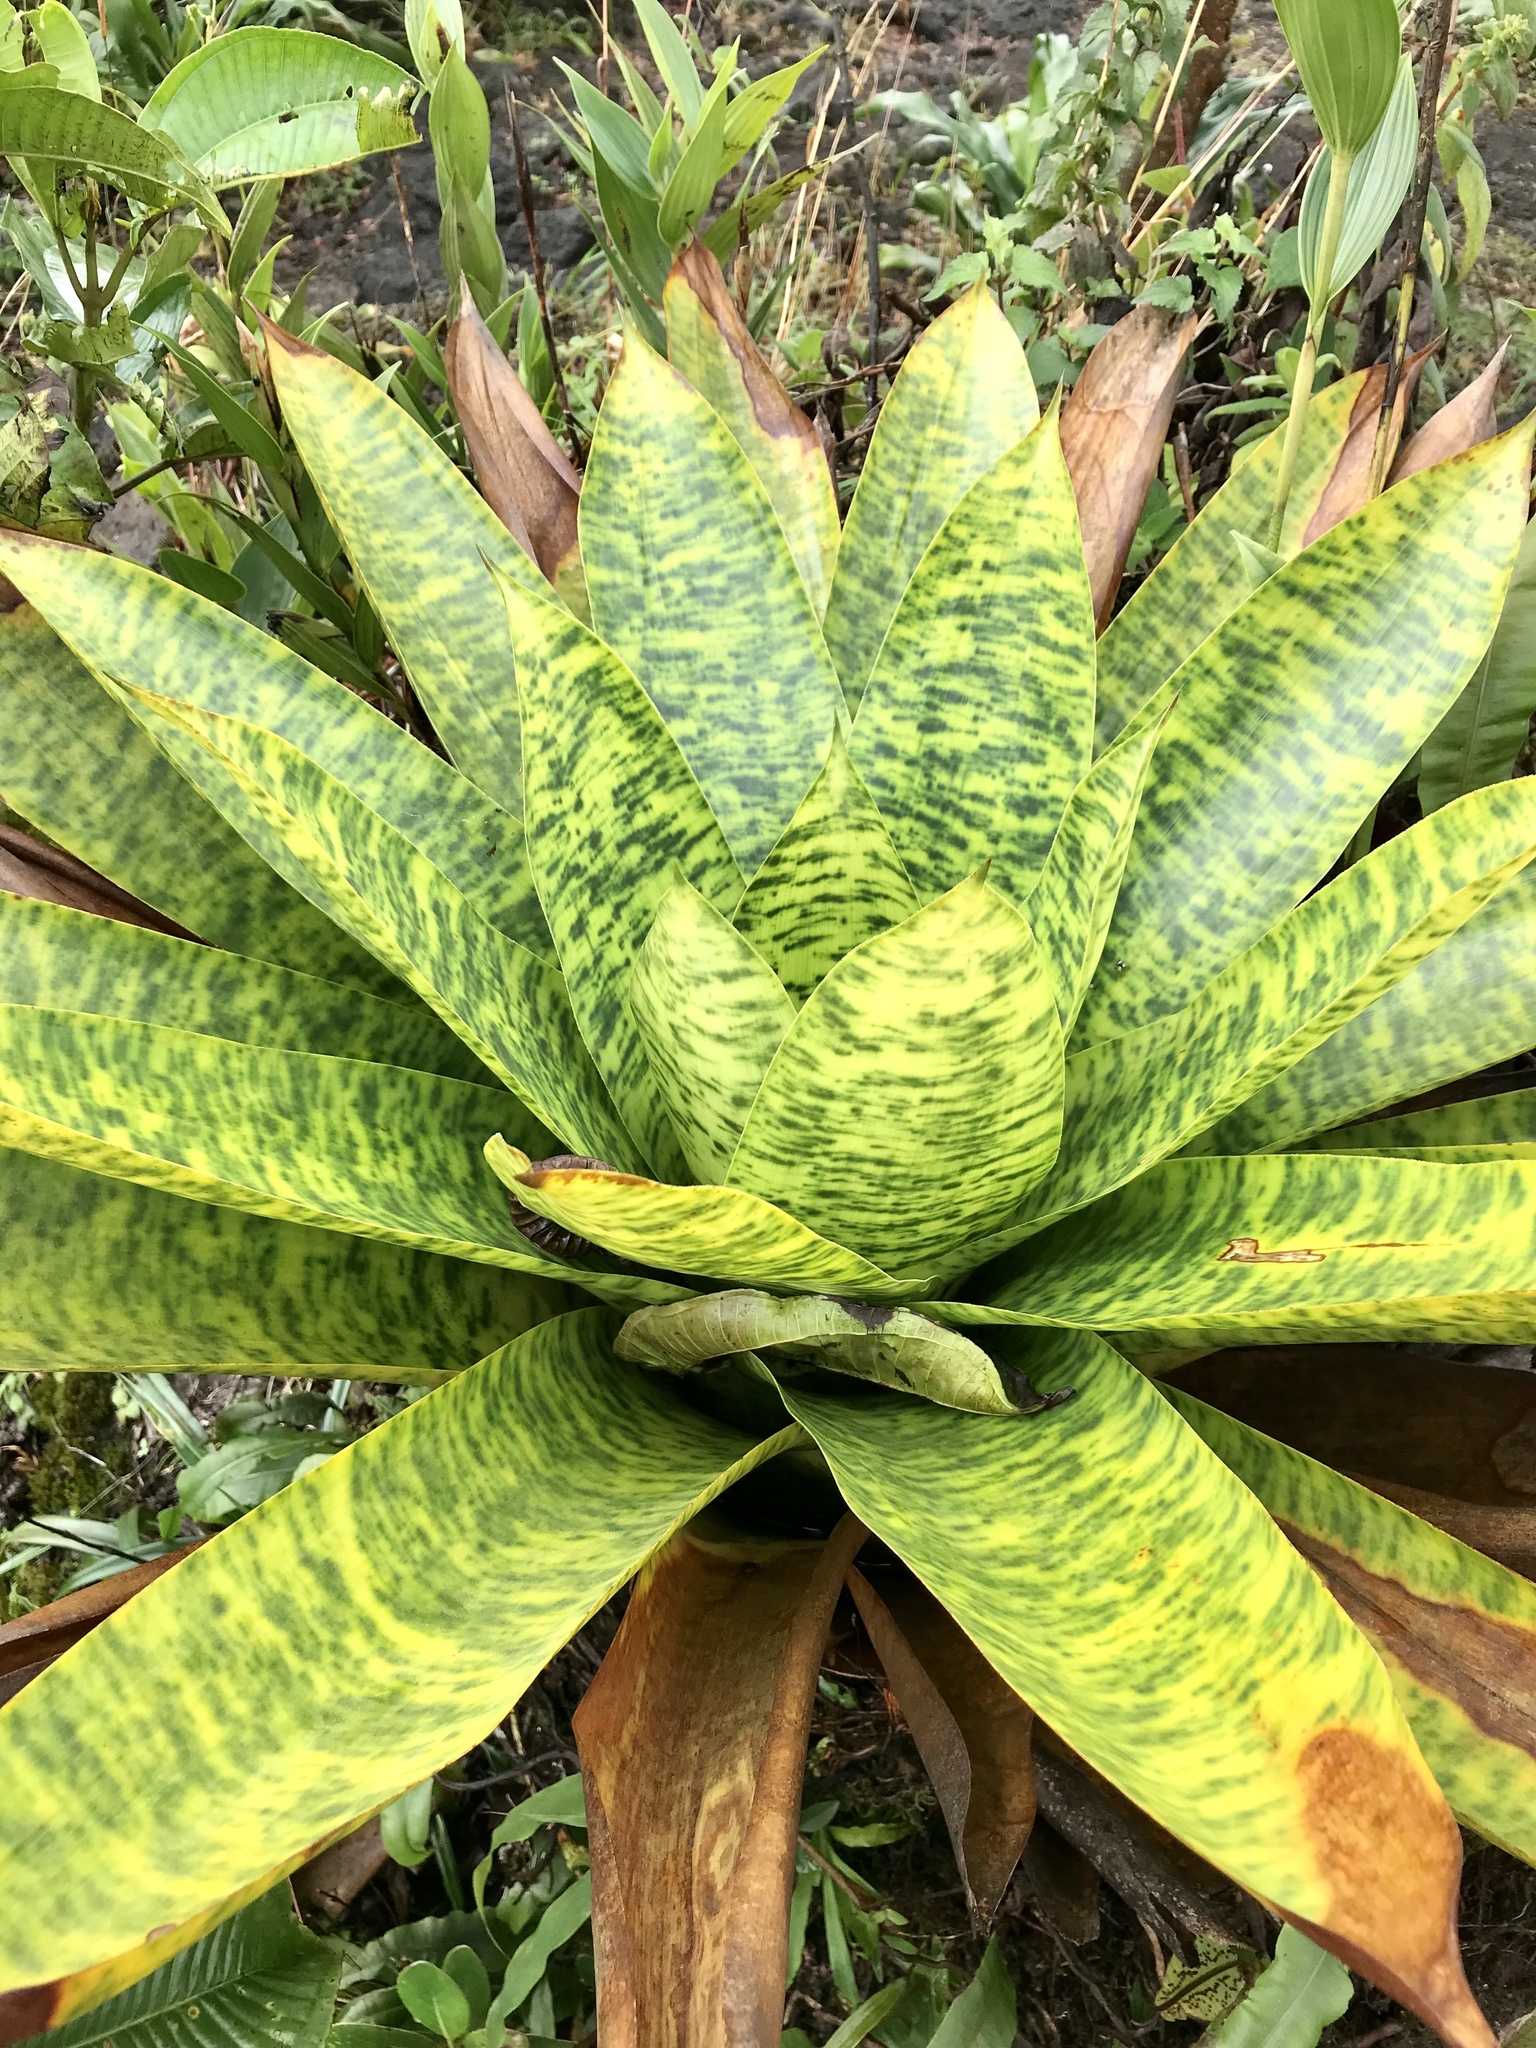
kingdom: Plantae
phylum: Tracheophyta
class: Liliopsida
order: Poales
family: Bromeliaceae
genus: Werauhia
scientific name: Werauhia kupperiana
